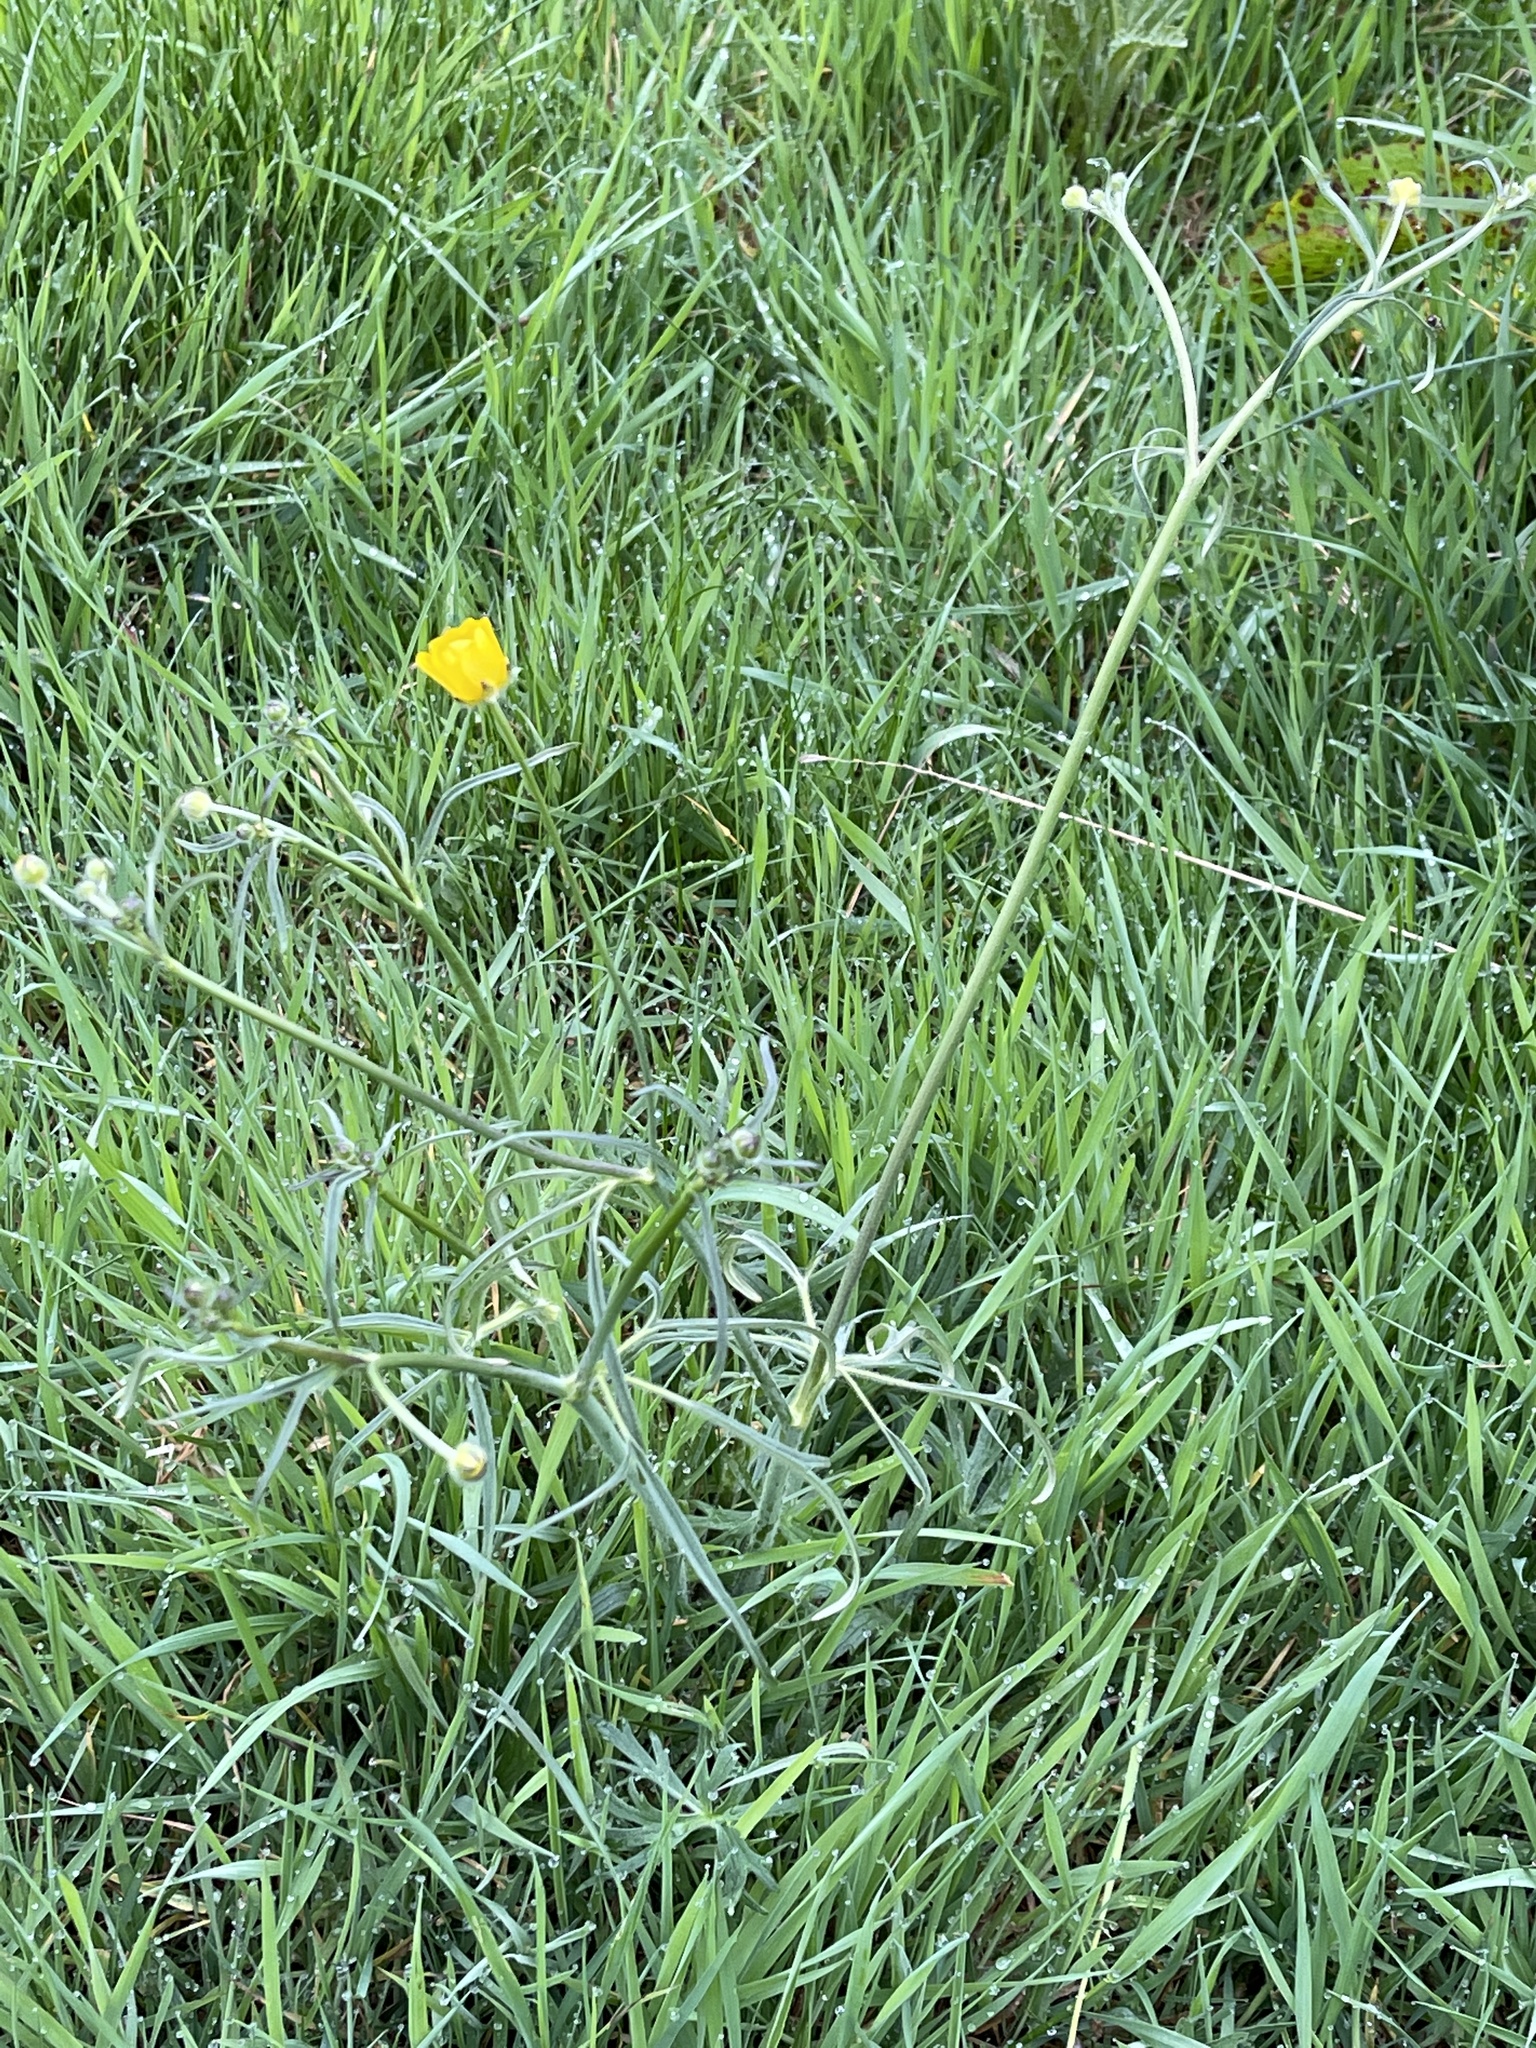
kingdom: Plantae
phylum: Tracheophyta
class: Magnoliopsida
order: Ranunculales
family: Ranunculaceae
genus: Ranunculus
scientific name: Ranunculus acris
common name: Meadow buttercup
